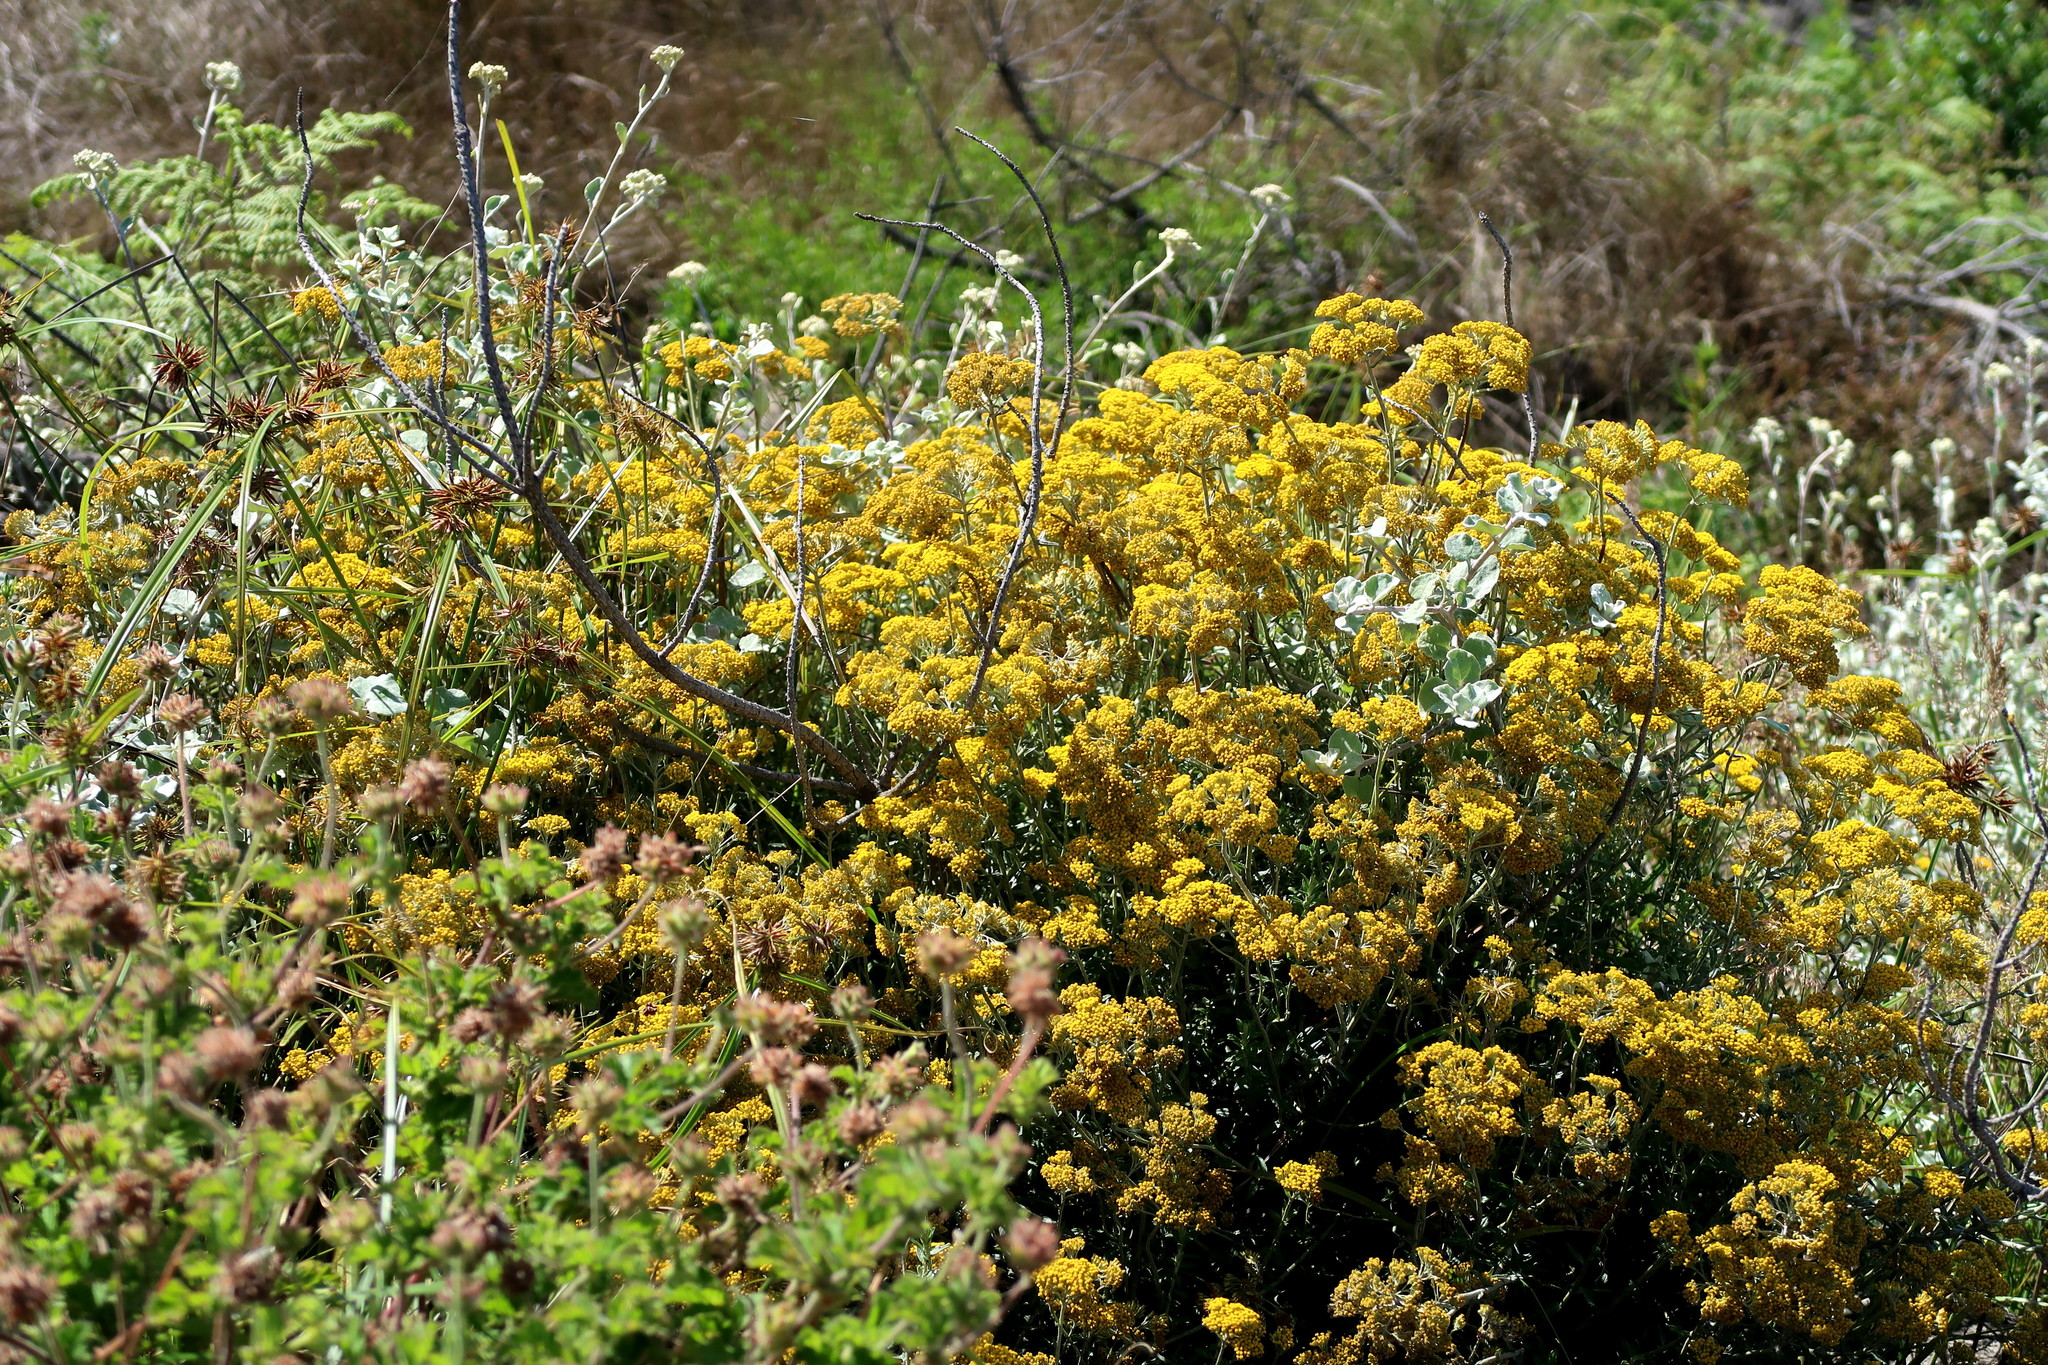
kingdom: Plantae
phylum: Tracheophyta
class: Magnoliopsida
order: Asterales
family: Asteraceae
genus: Helichrysum
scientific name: Helichrysum cymosum
